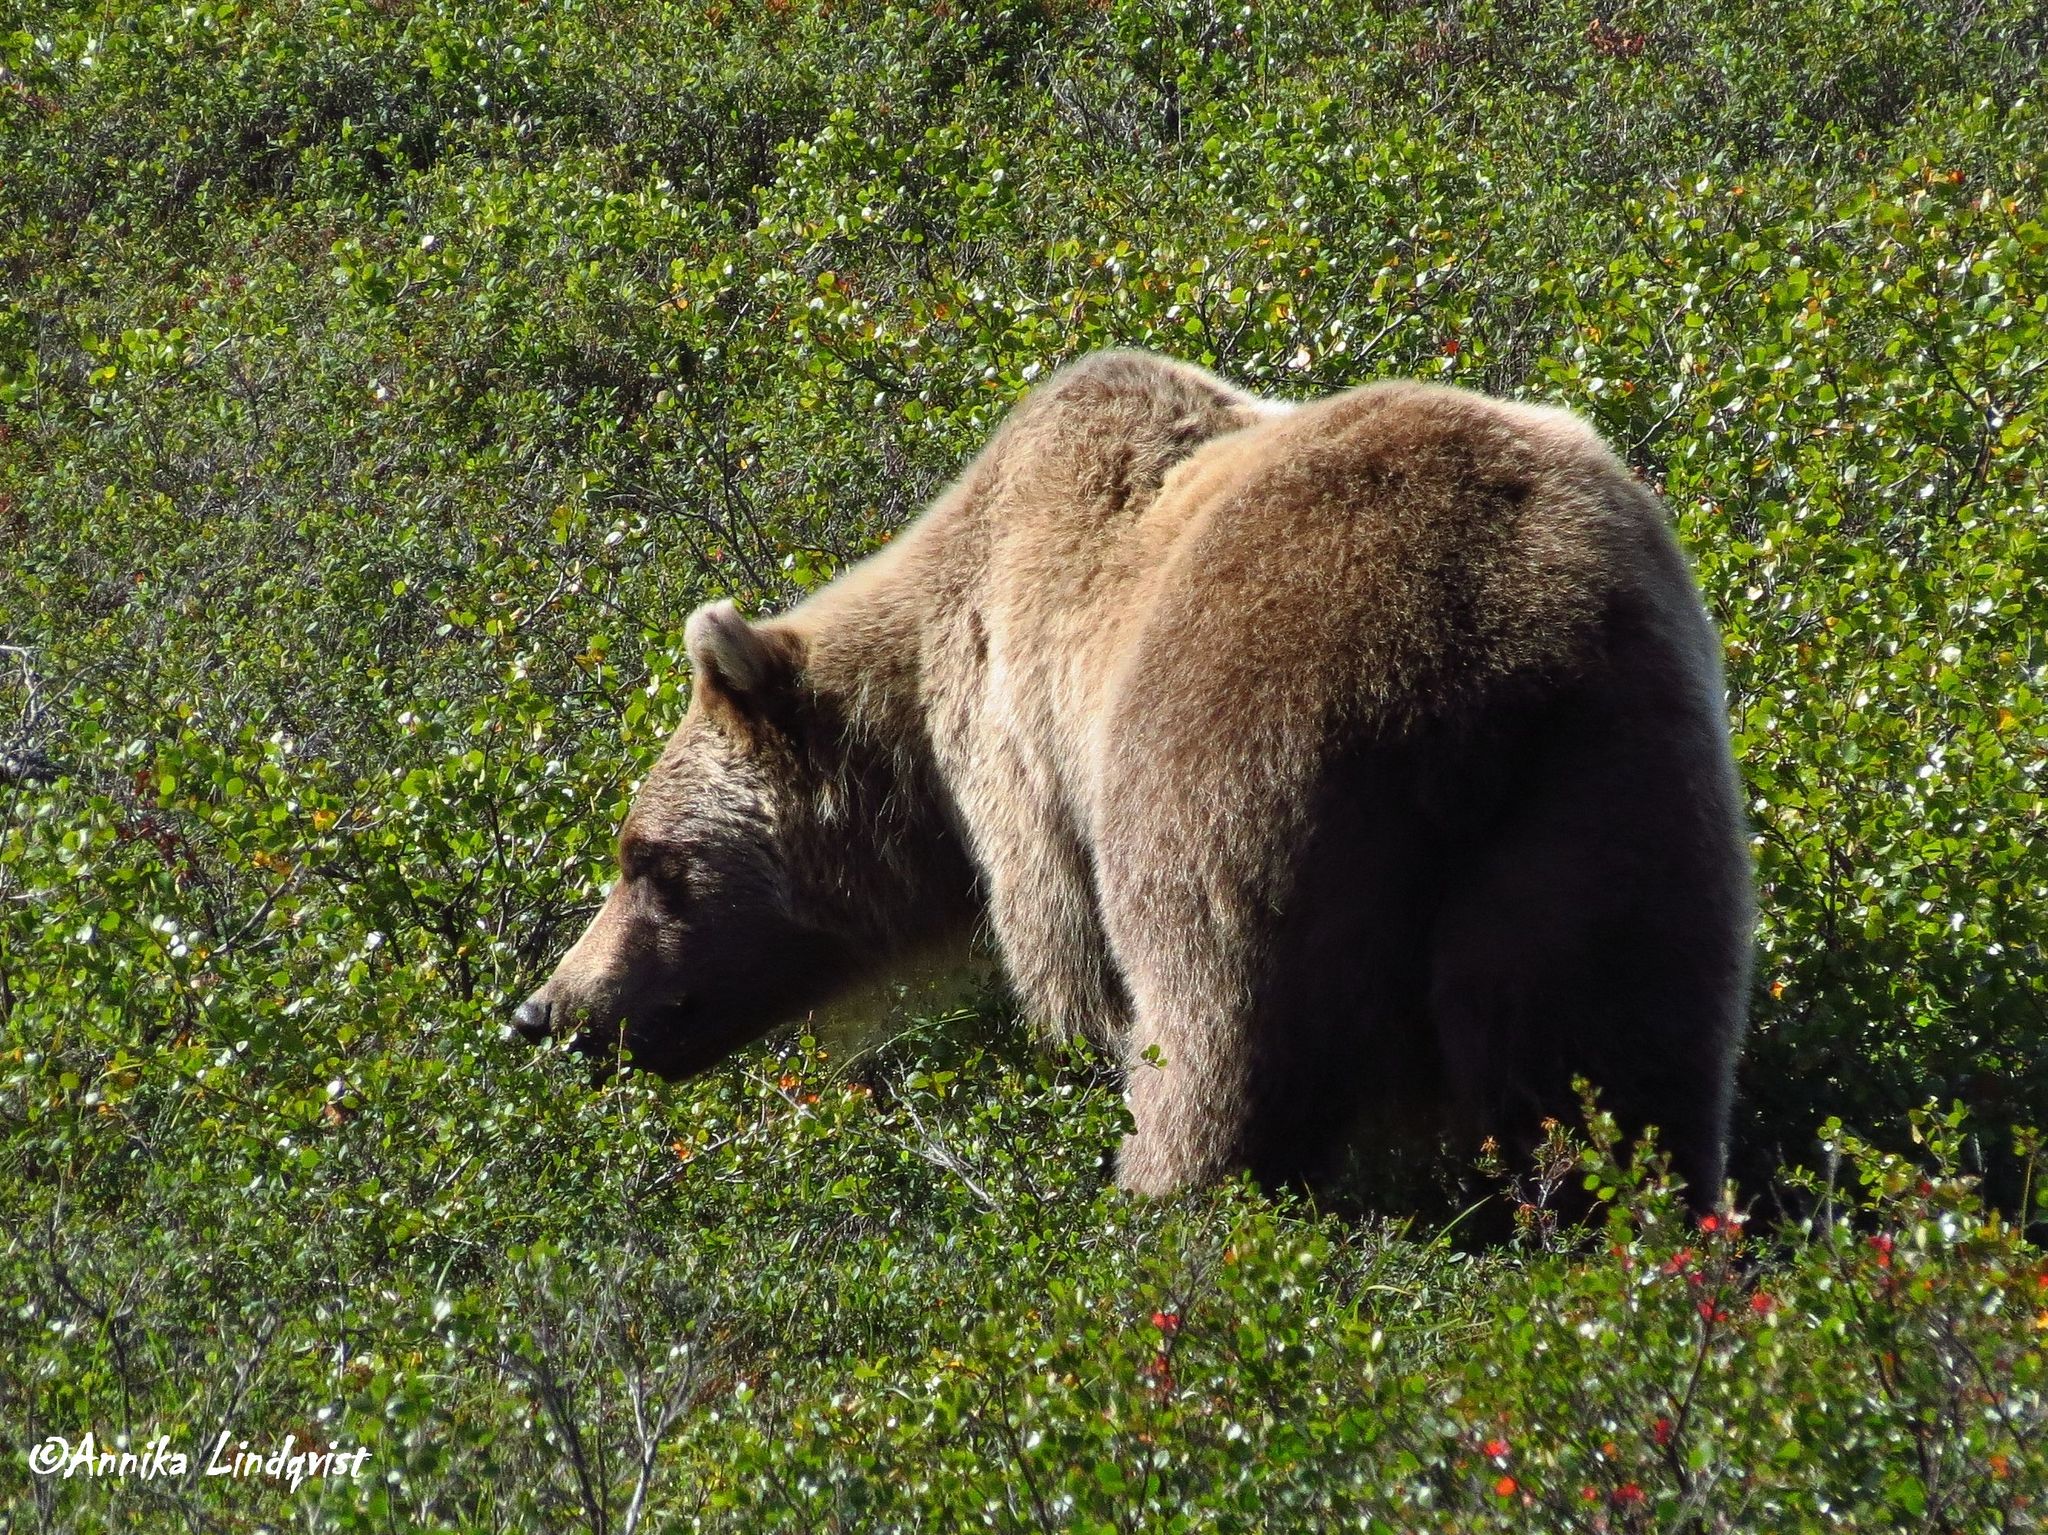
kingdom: Animalia
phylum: Chordata
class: Mammalia
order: Carnivora
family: Ursidae
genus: Ursus
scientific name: Ursus arctos
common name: Brown bear
